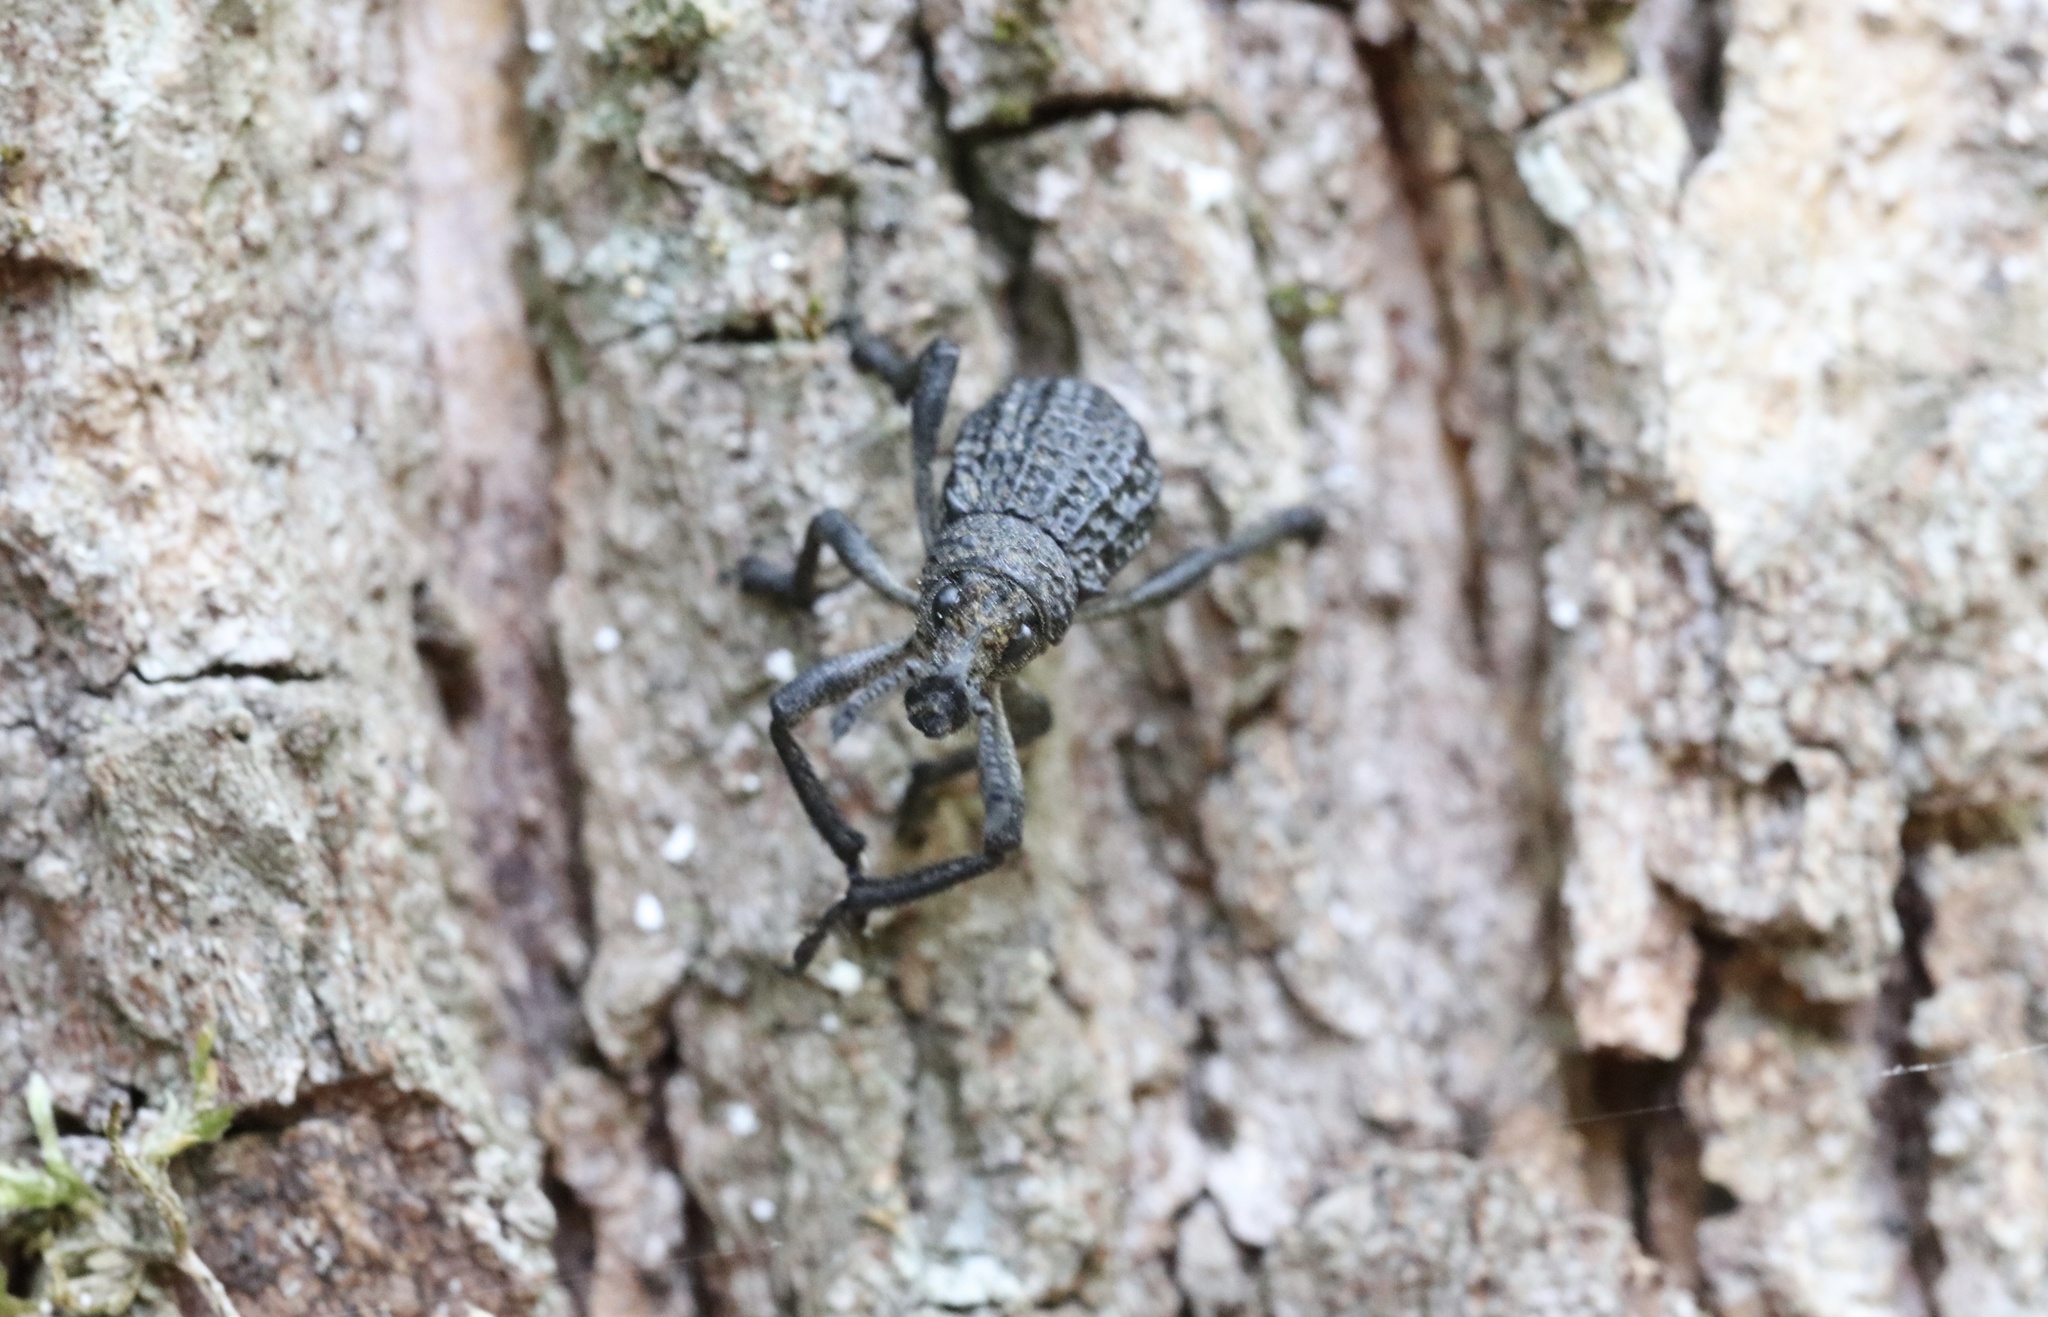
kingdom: Animalia
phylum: Arthropoda
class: Insecta
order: Coleoptera
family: Curculionidae
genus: Aegorhinus
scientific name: Aegorhinus superciliosus
